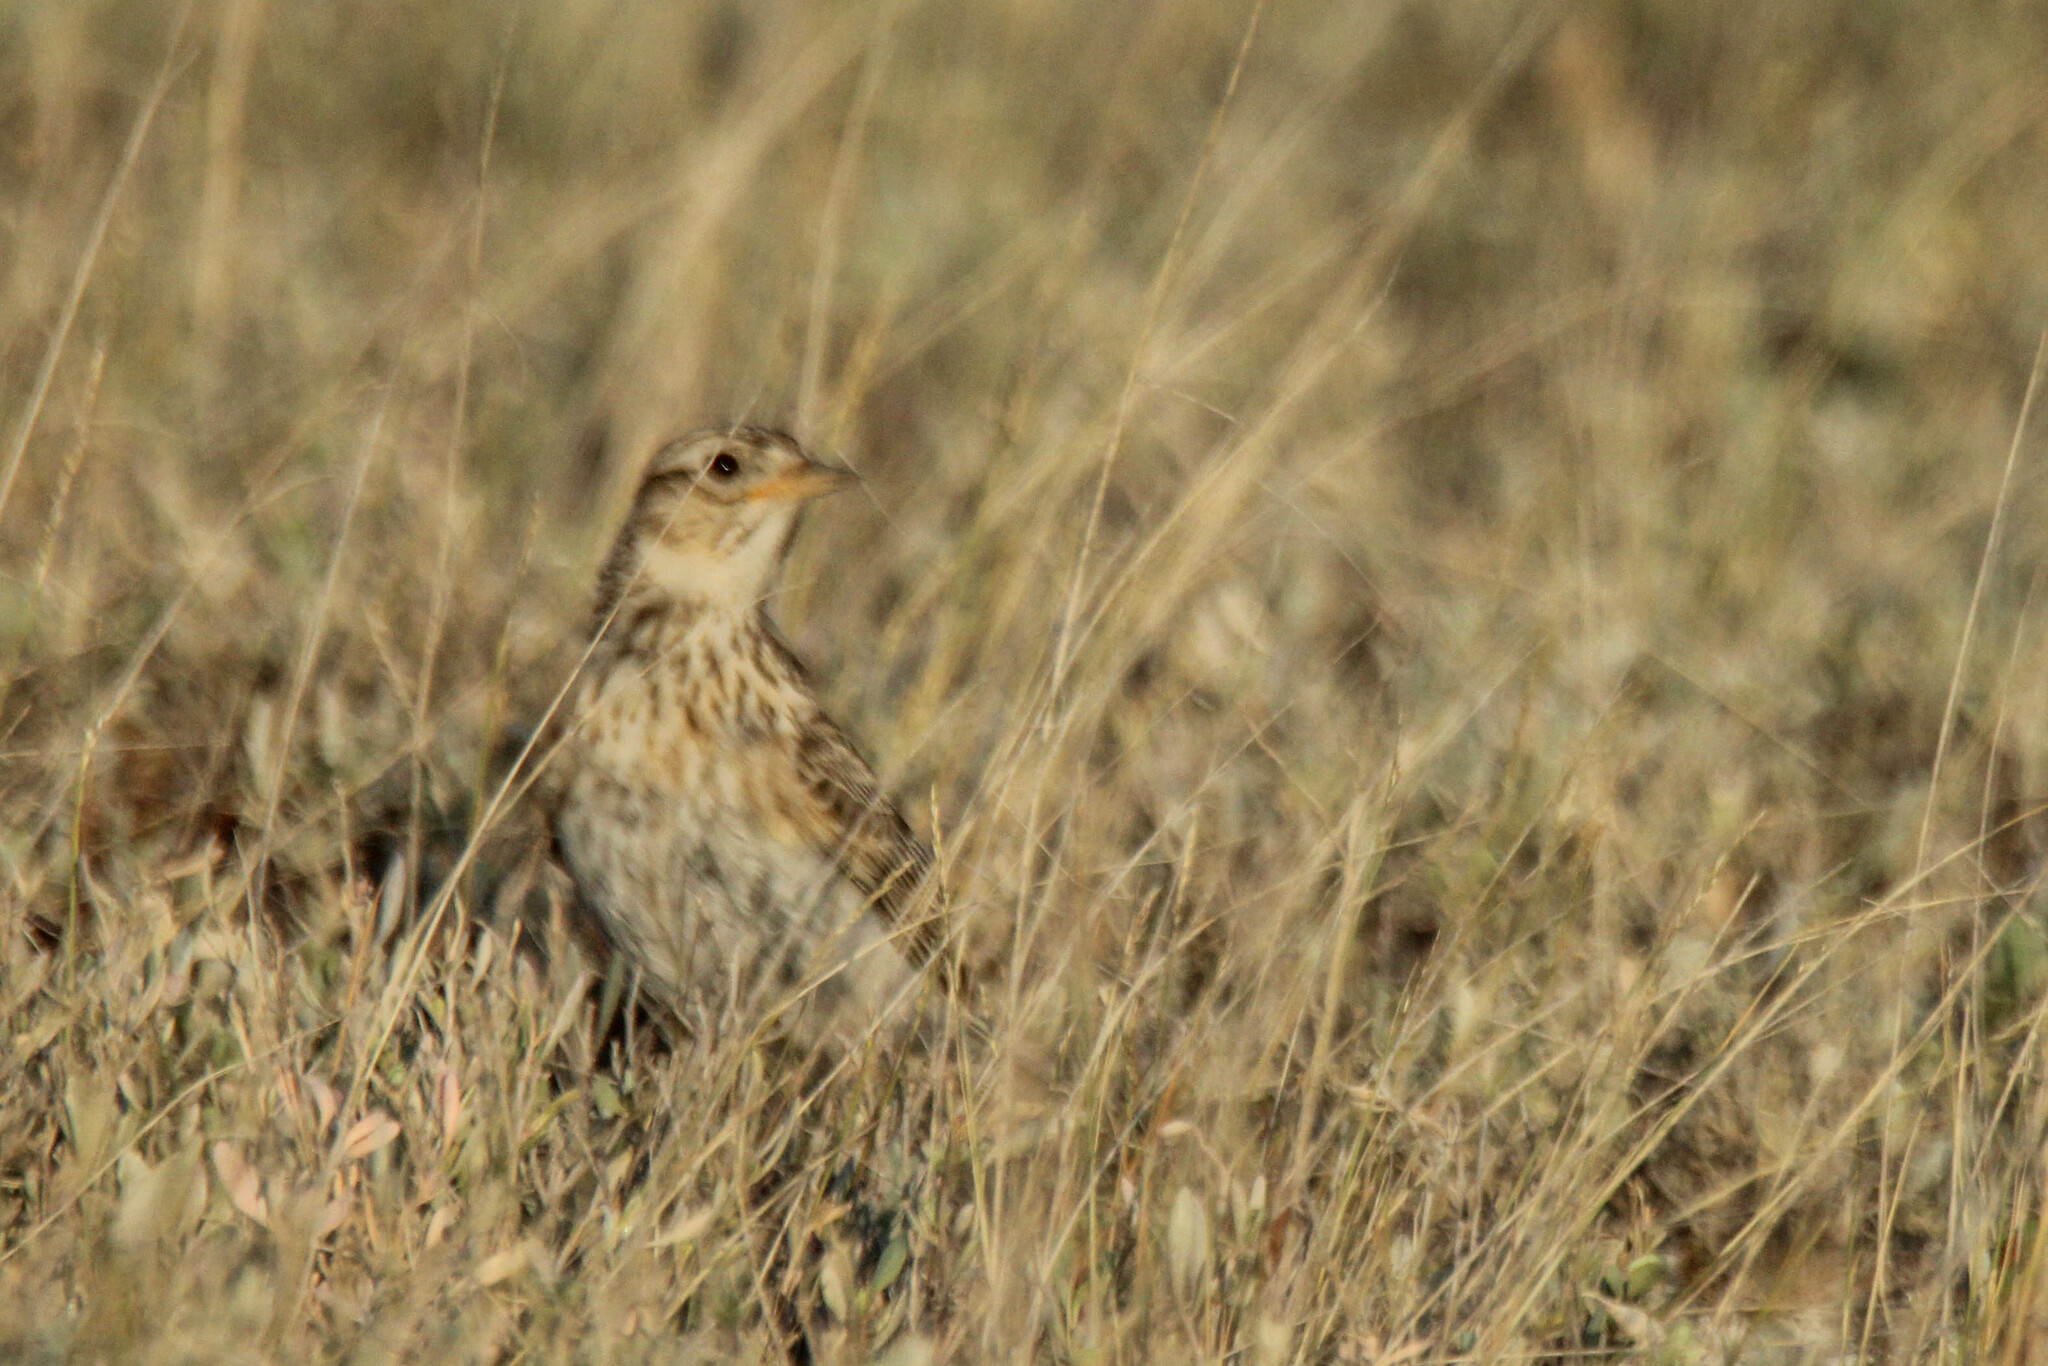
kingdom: Animalia
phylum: Chordata
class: Aves
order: Passeriformes
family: Alaudidae
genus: Alauda
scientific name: Alauda arvensis
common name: Eurasian skylark
